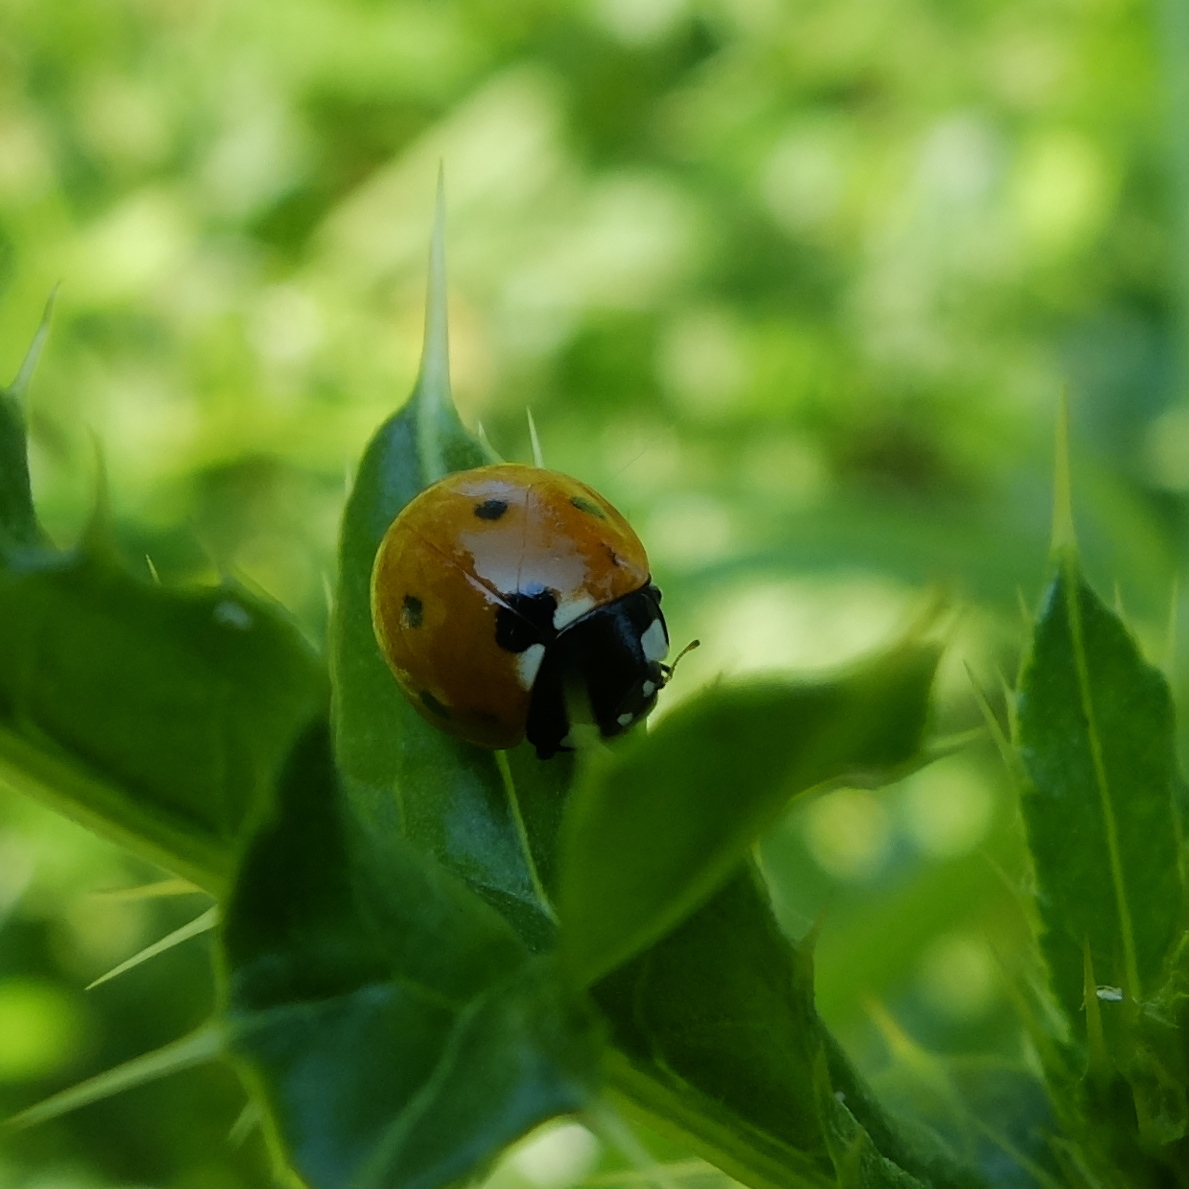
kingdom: Animalia
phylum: Arthropoda
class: Insecta
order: Coleoptera
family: Coccinellidae
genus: Coccinella
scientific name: Coccinella septempunctata
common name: Sevenspotted lady beetle
